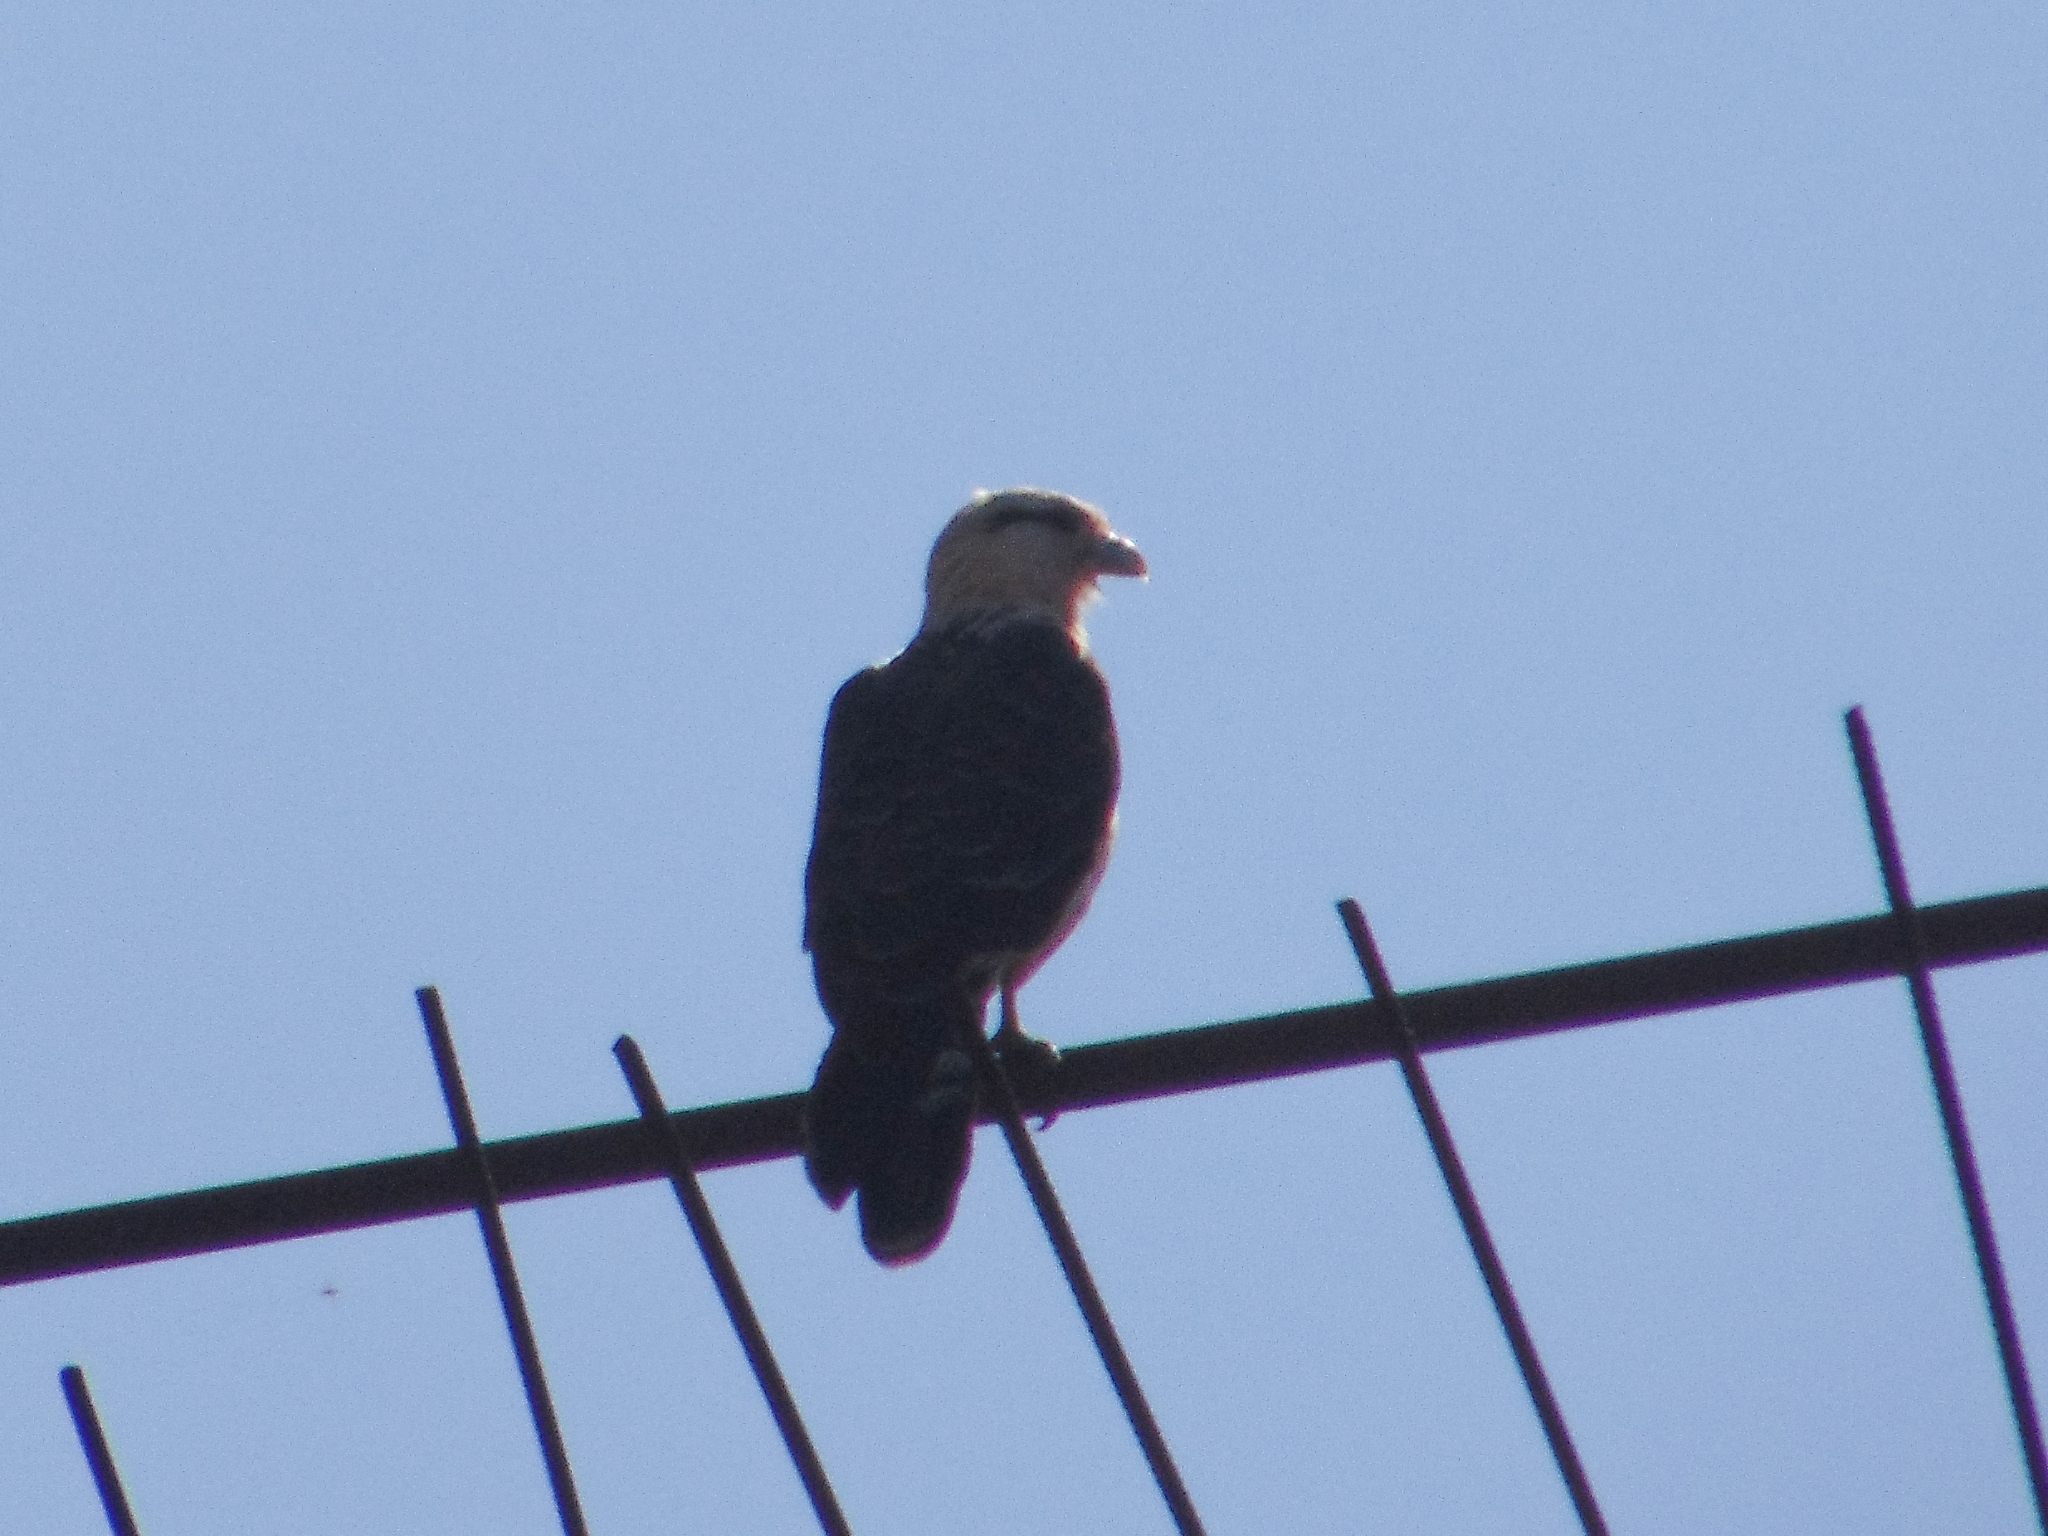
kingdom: Animalia
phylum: Chordata
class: Aves
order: Falconiformes
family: Falconidae
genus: Daptrius
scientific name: Daptrius
